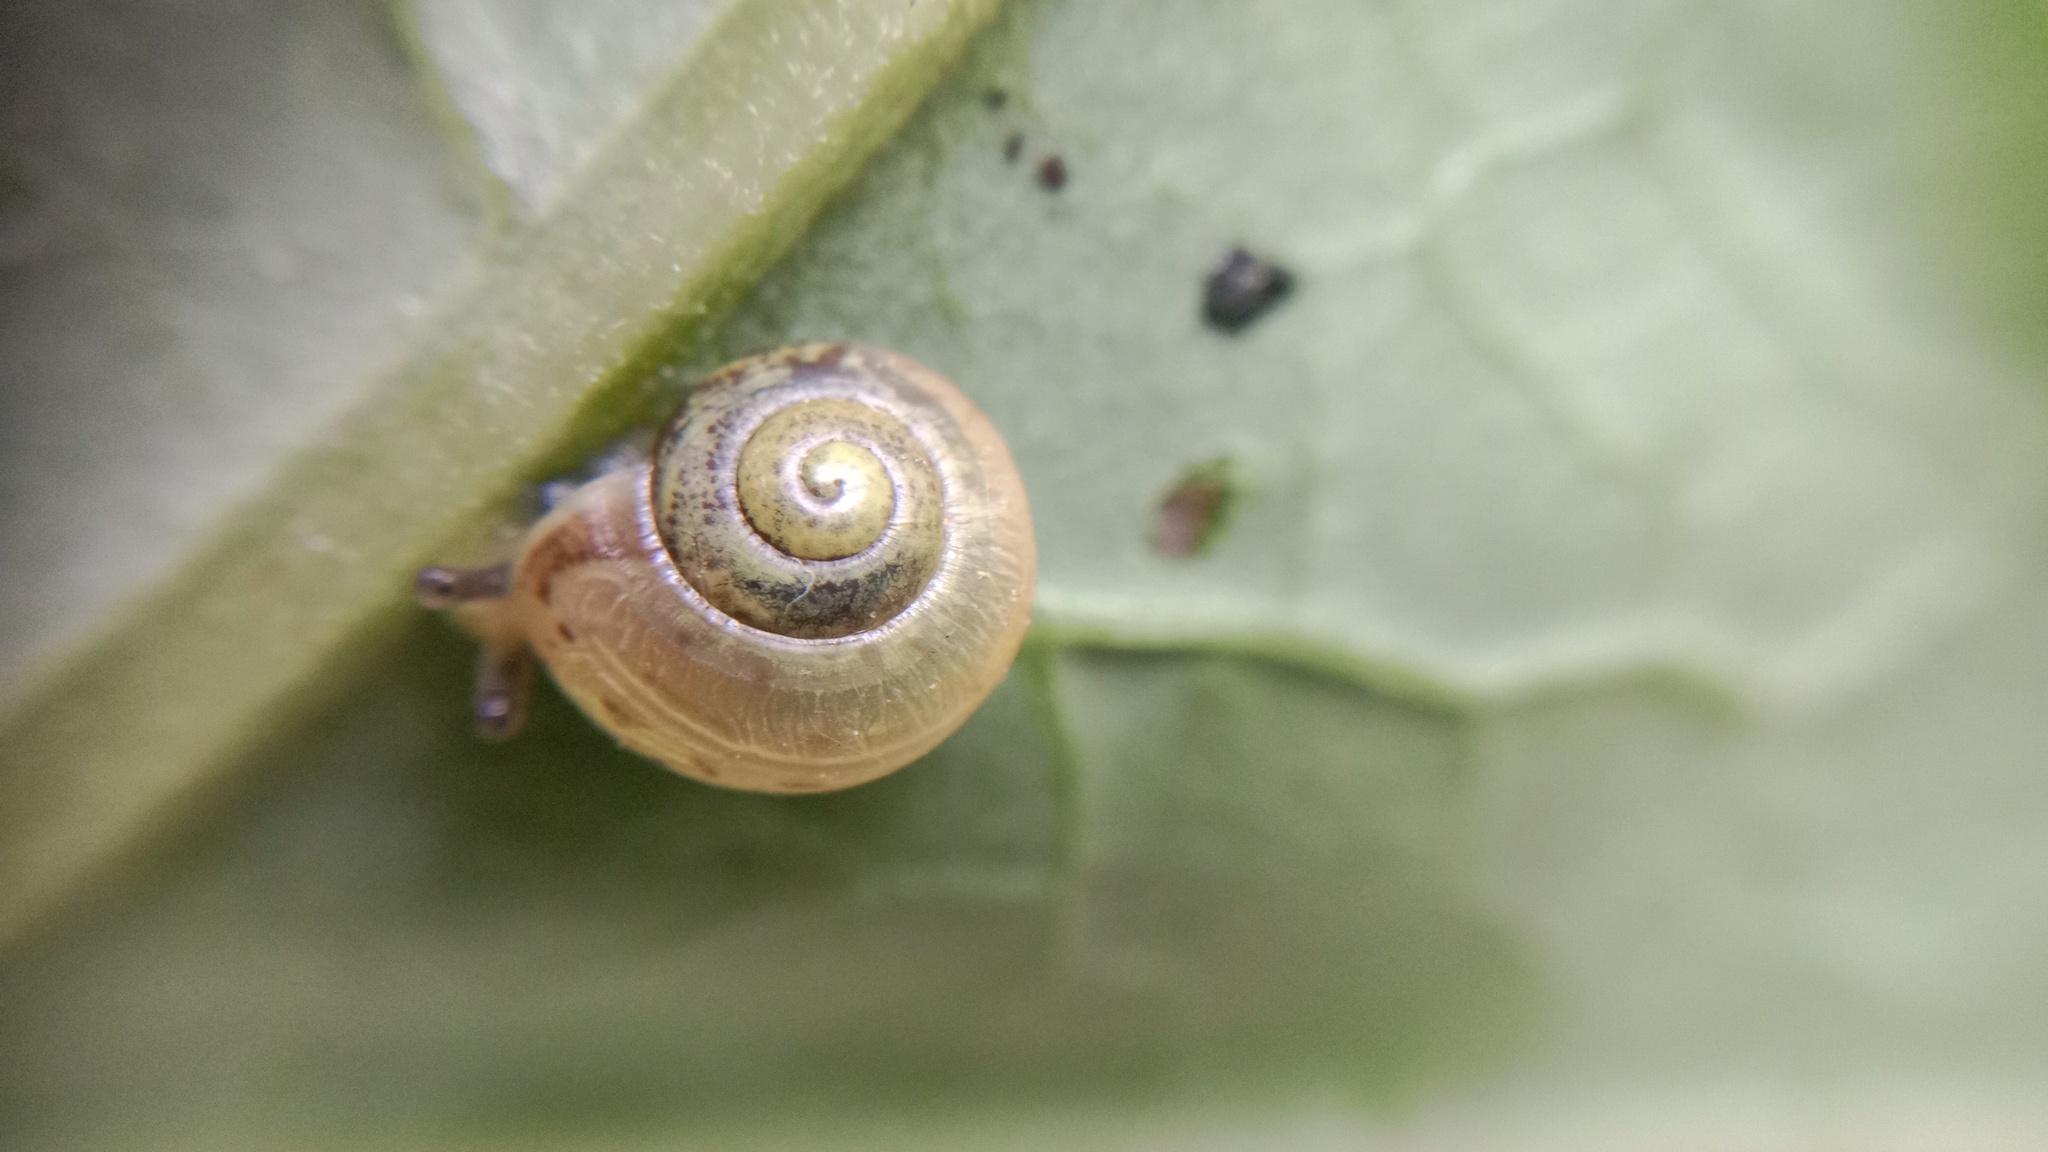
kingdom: Animalia
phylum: Mollusca
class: Gastropoda
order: Stylommatophora
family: Camaenidae
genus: Fruticicola
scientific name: Fruticicola fruticum
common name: Bush snail
